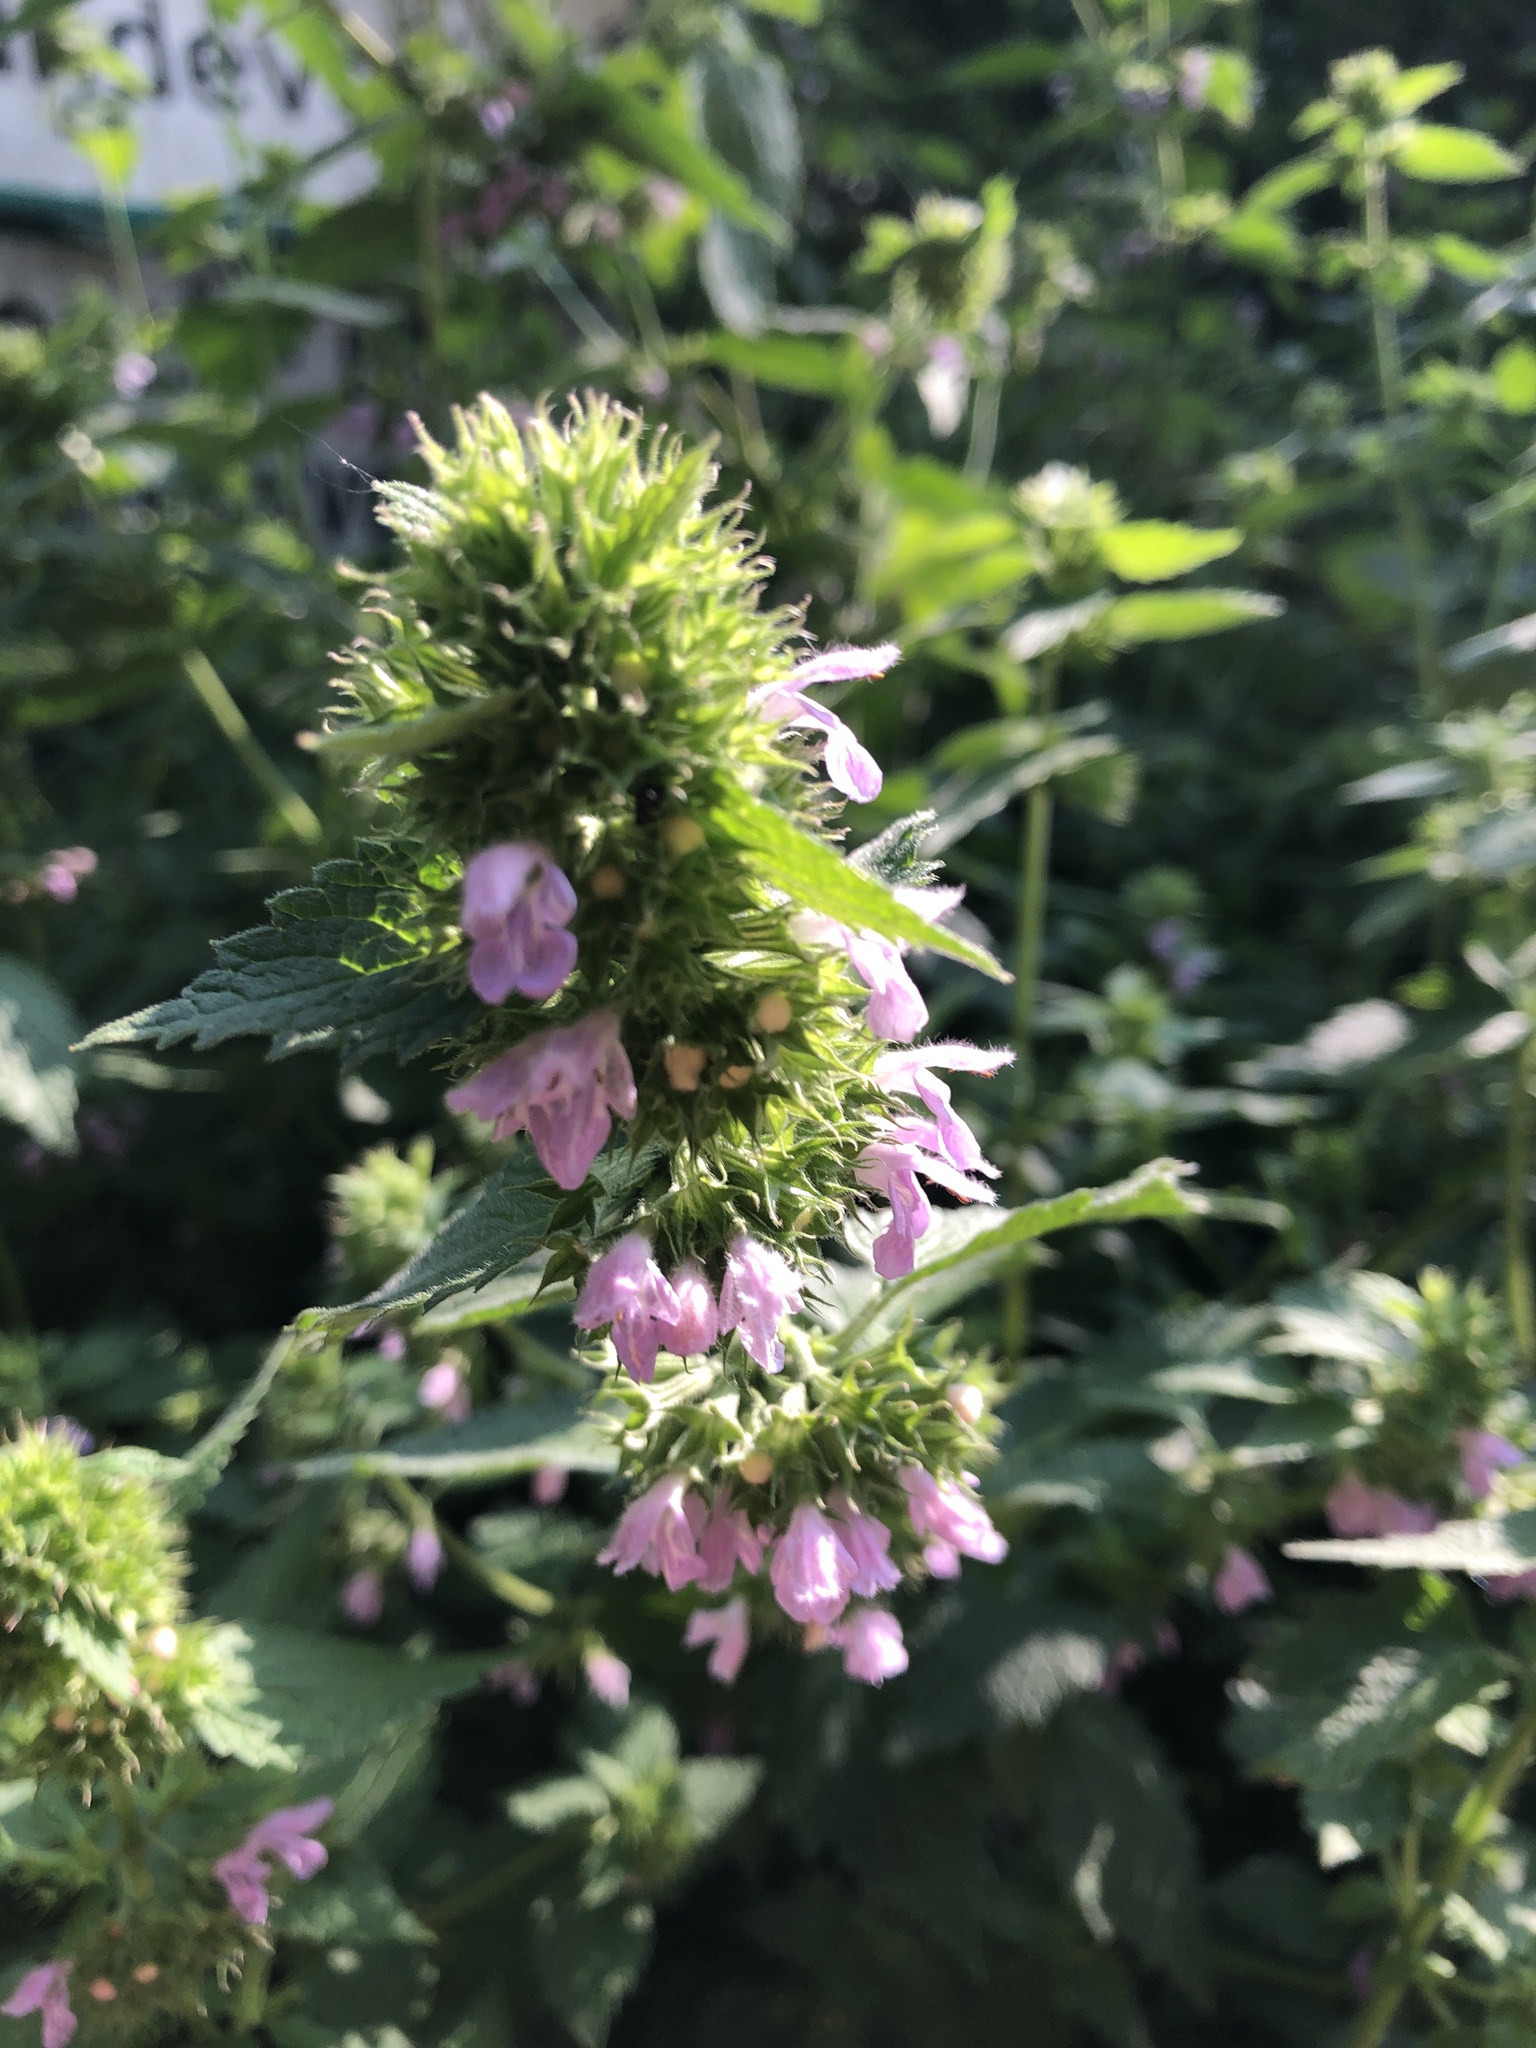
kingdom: Plantae
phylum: Tracheophyta
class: Magnoliopsida
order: Lamiales
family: Lamiaceae
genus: Ballota
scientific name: Ballota nigra
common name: Black horehound
